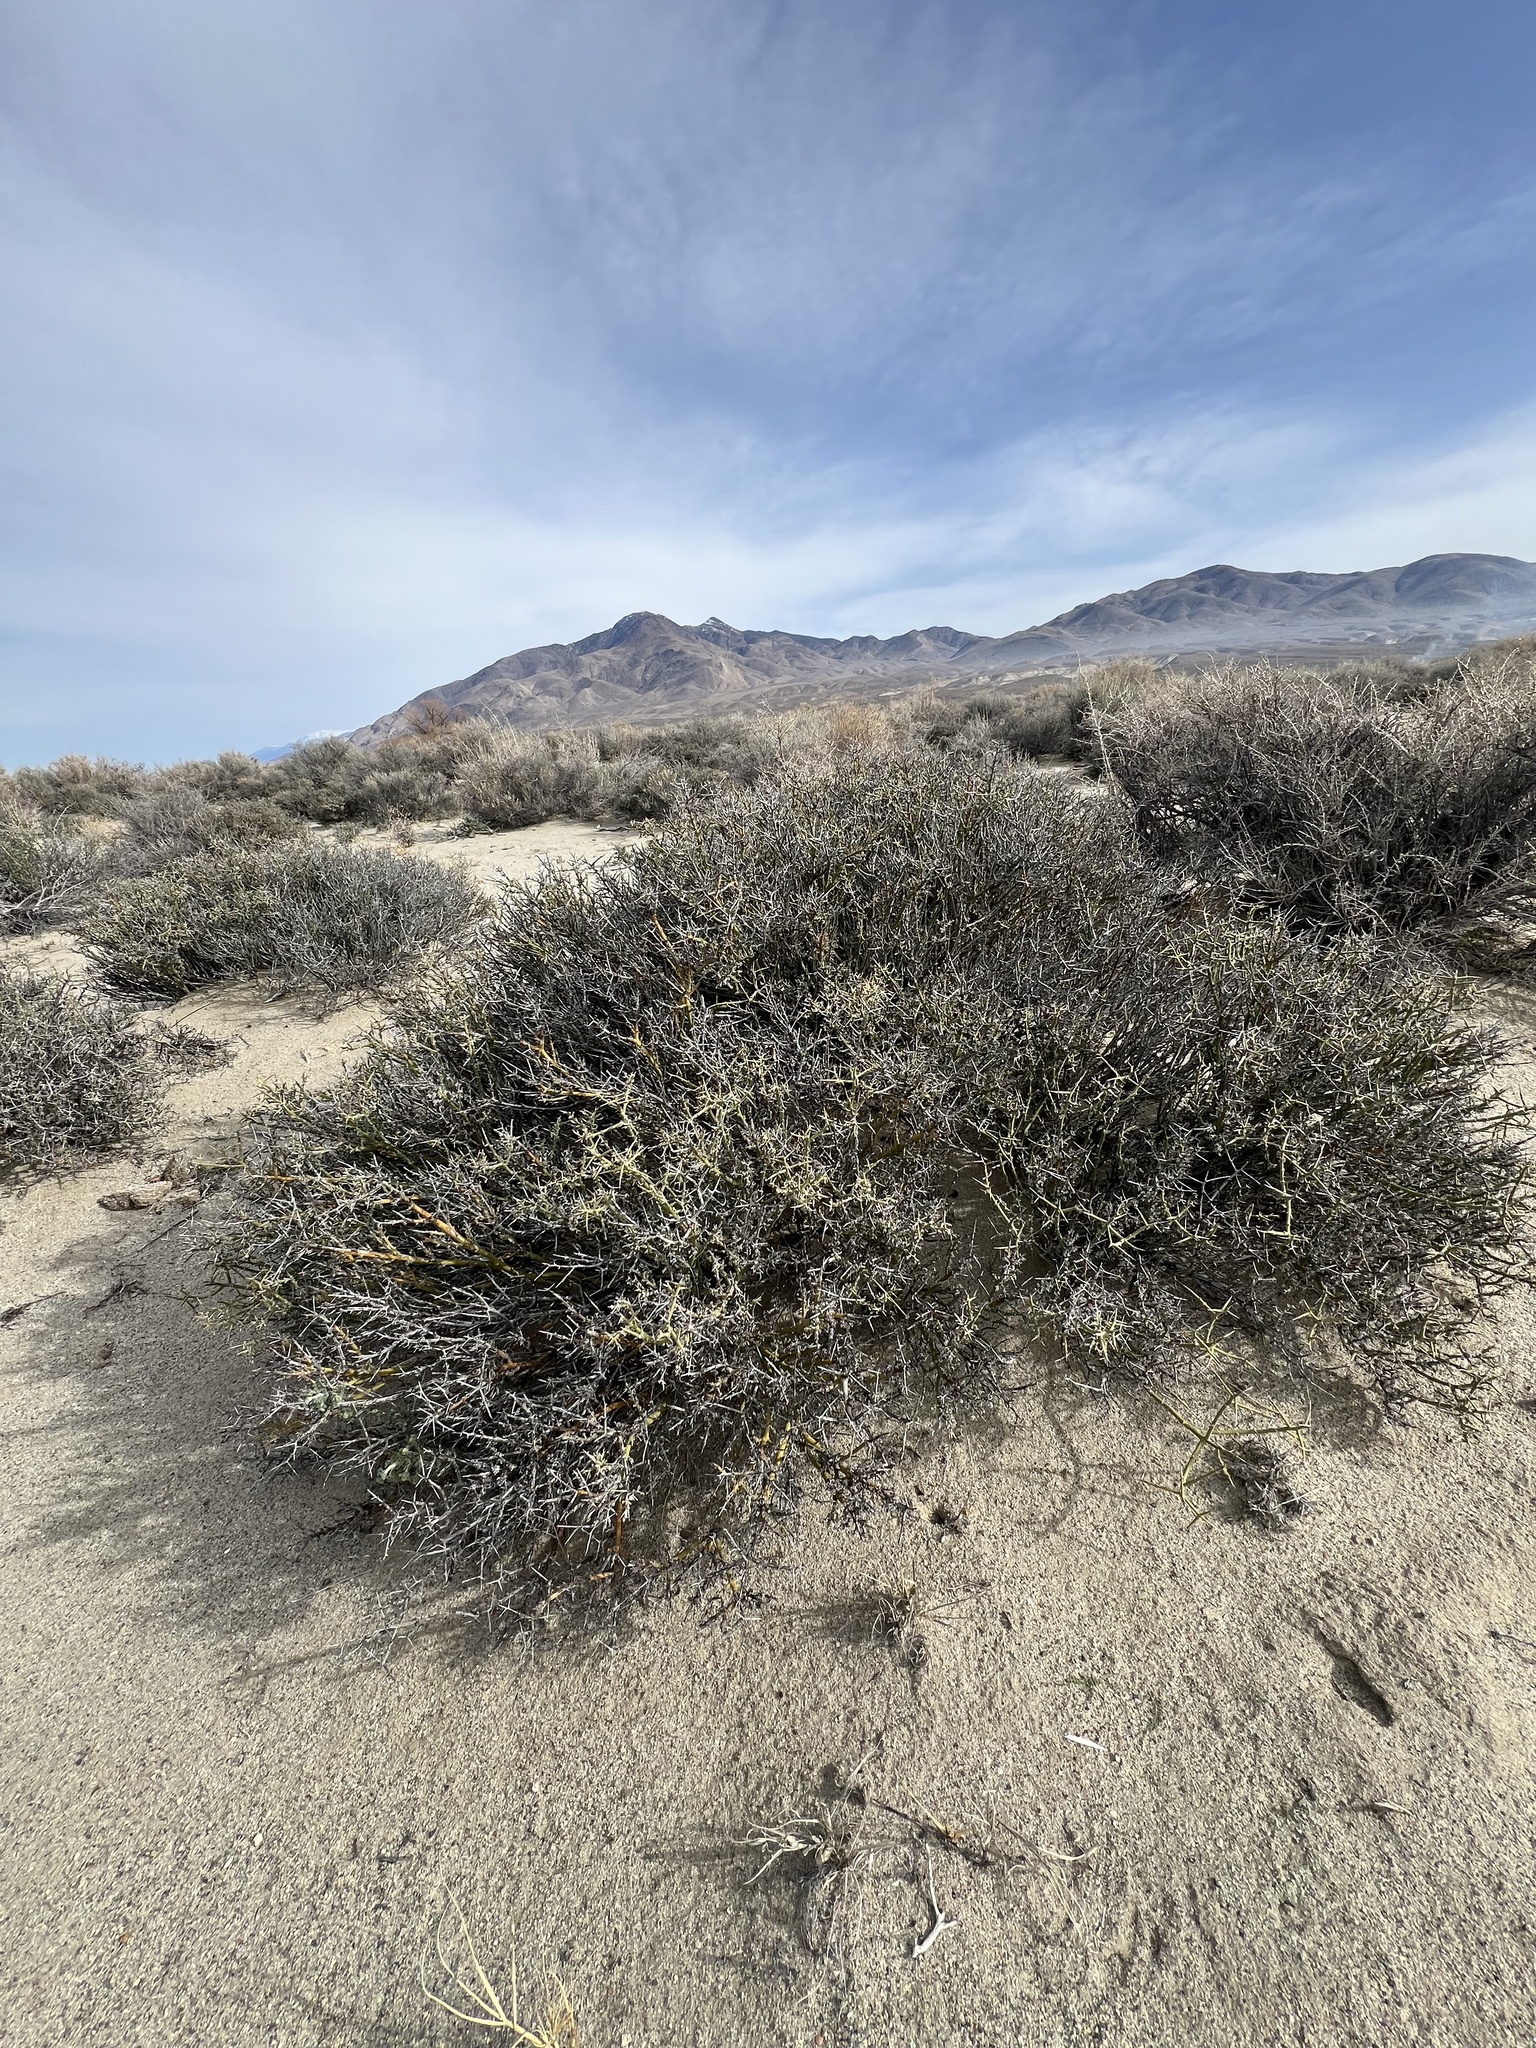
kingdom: Plantae
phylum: Tracheophyta
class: Magnoliopsida
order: Lamiales
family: Oleaceae
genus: Menodora
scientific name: Menodora spinescens
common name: Spiny menodora
